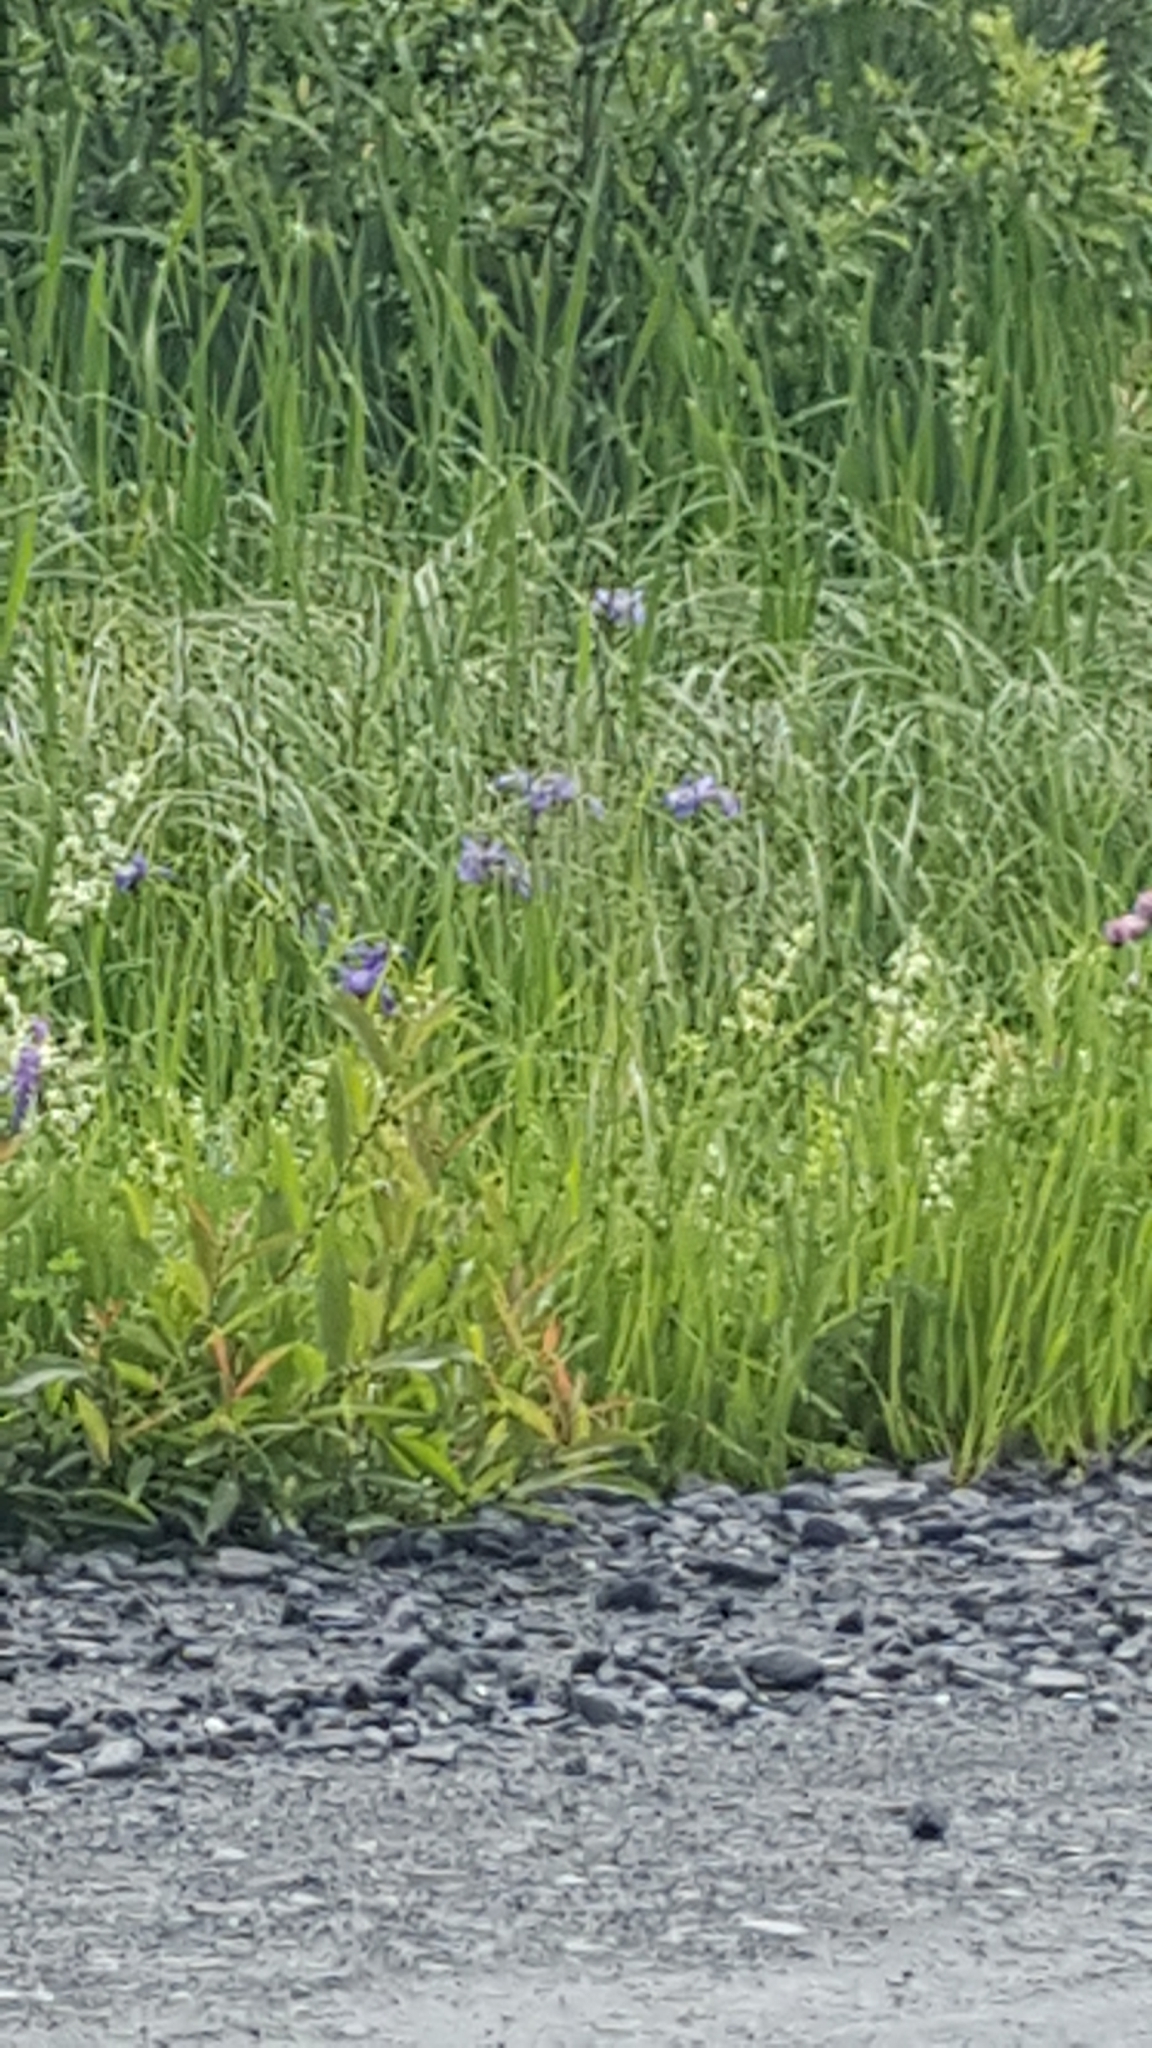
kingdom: Plantae
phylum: Tracheophyta
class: Liliopsida
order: Asparagales
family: Iridaceae
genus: Iris
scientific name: Iris versicolor
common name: Purple iris
